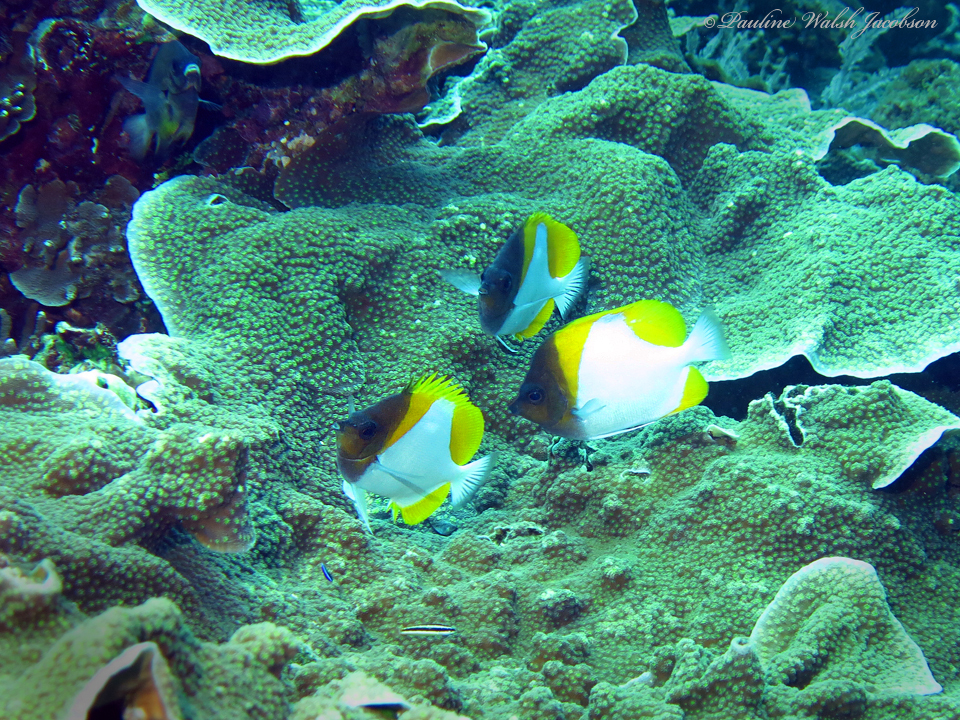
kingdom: Animalia
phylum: Chordata
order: Perciformes
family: Chaetodontidae
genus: Hemitaurichthys
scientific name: Hemitaurichthys polylepis
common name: Brushytoothed butterflyfish
